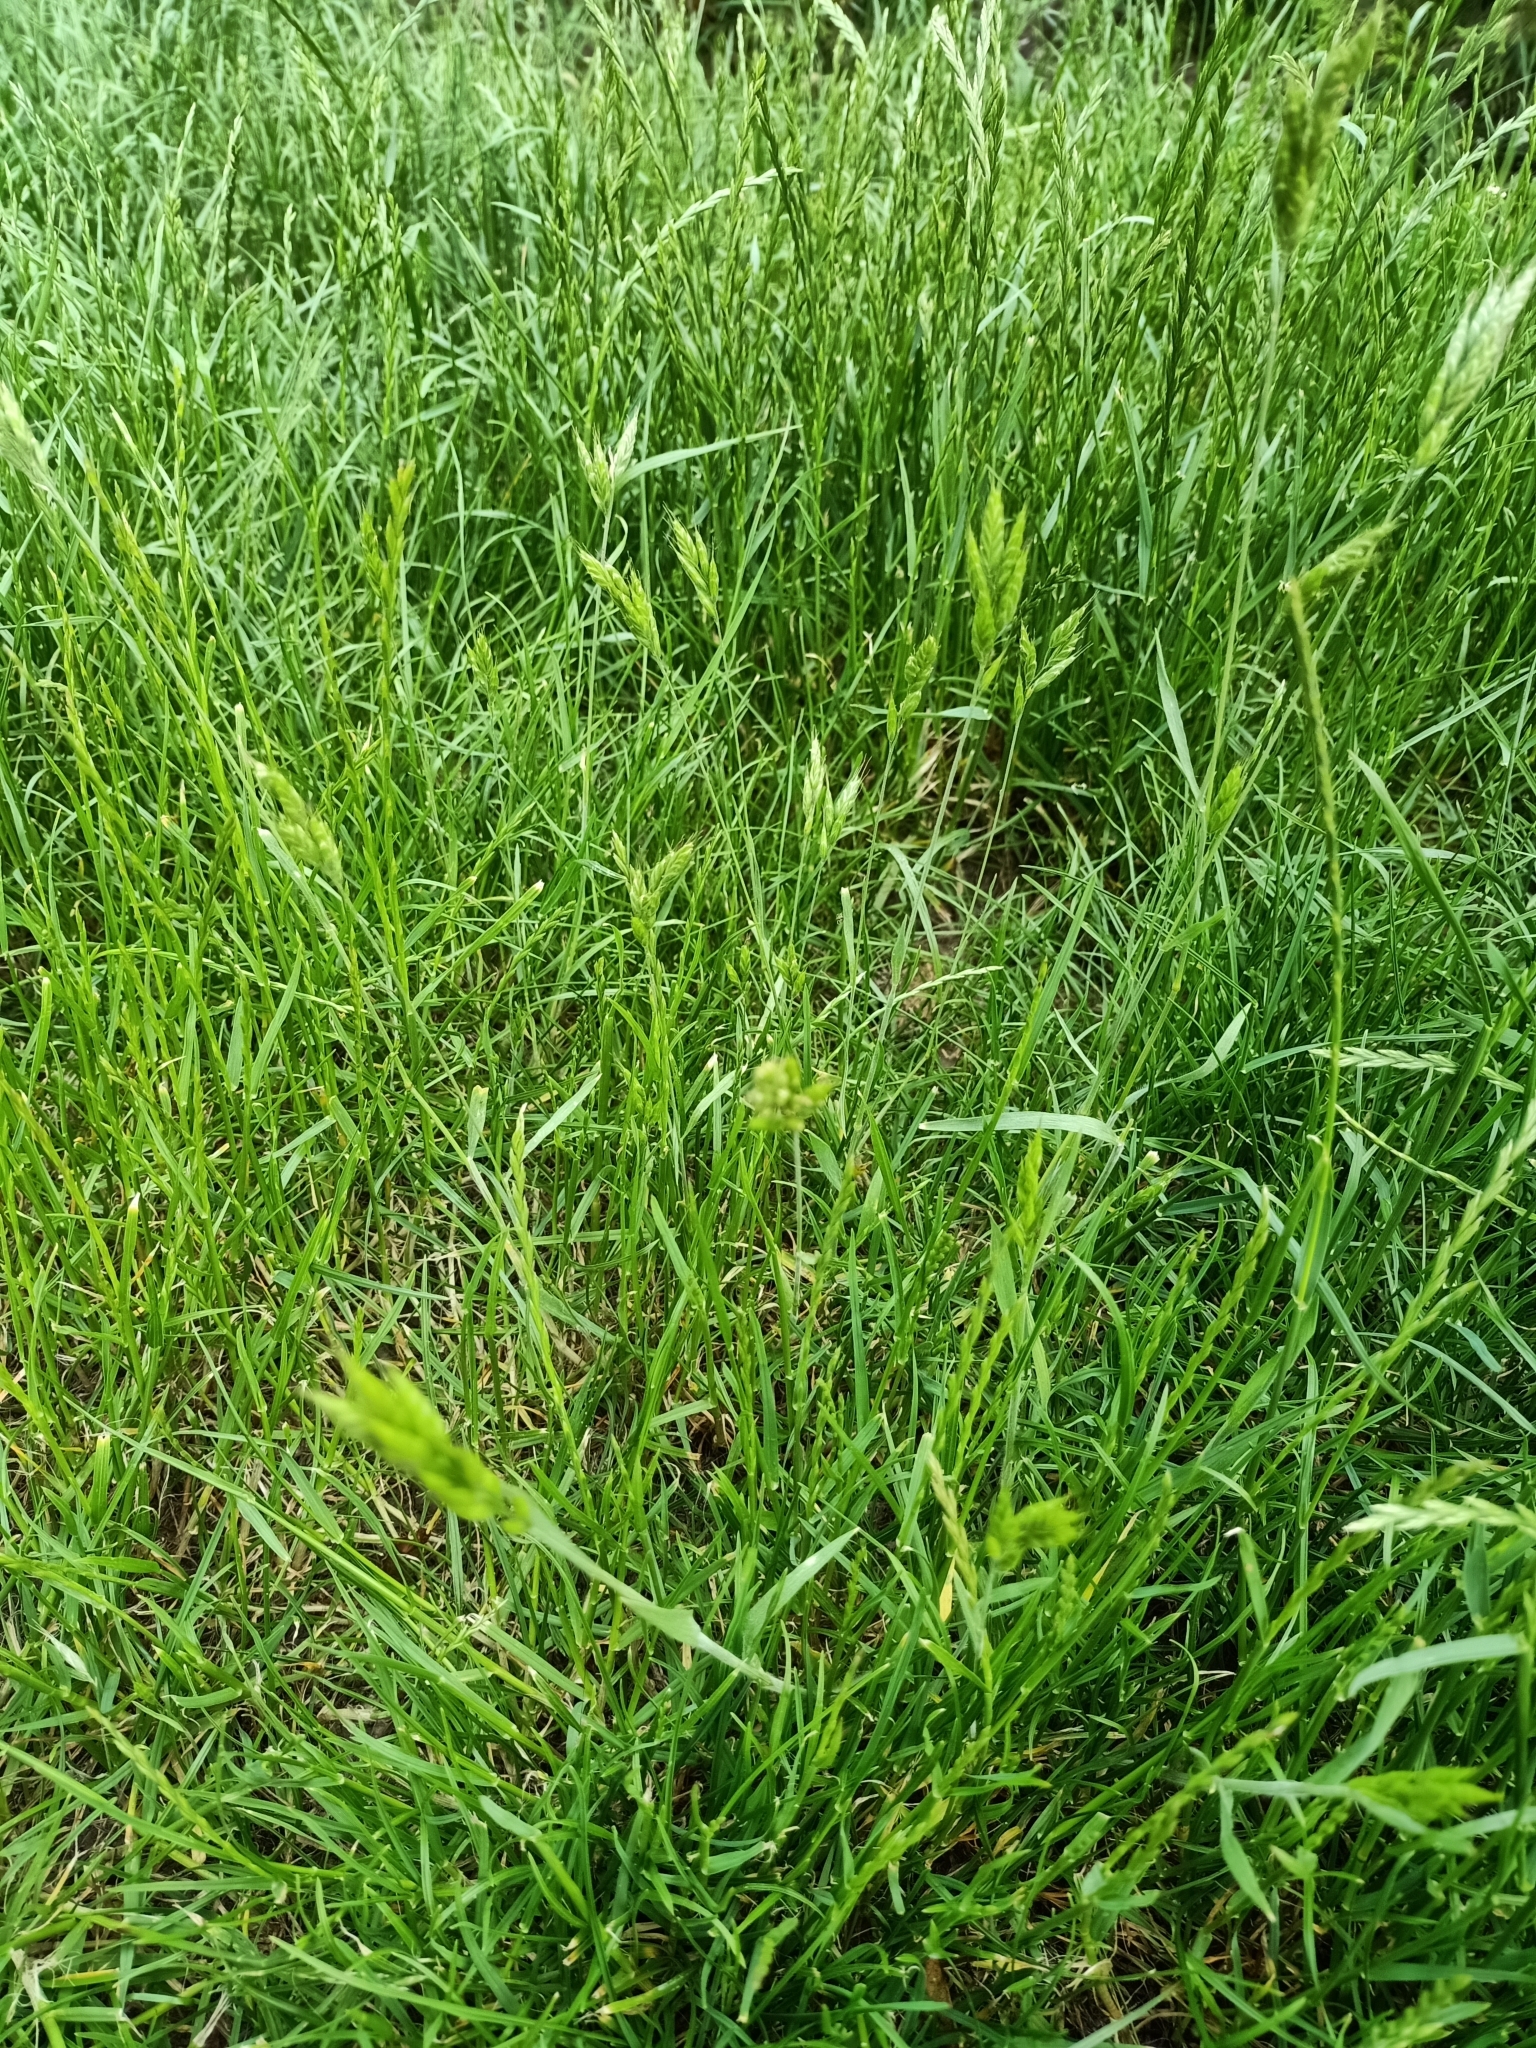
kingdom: Plantae
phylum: Tracheophyta
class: Liliopsida
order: Poales
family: Poaceae
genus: Bromus
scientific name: Bromus hordeaceus
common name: Soft brome
